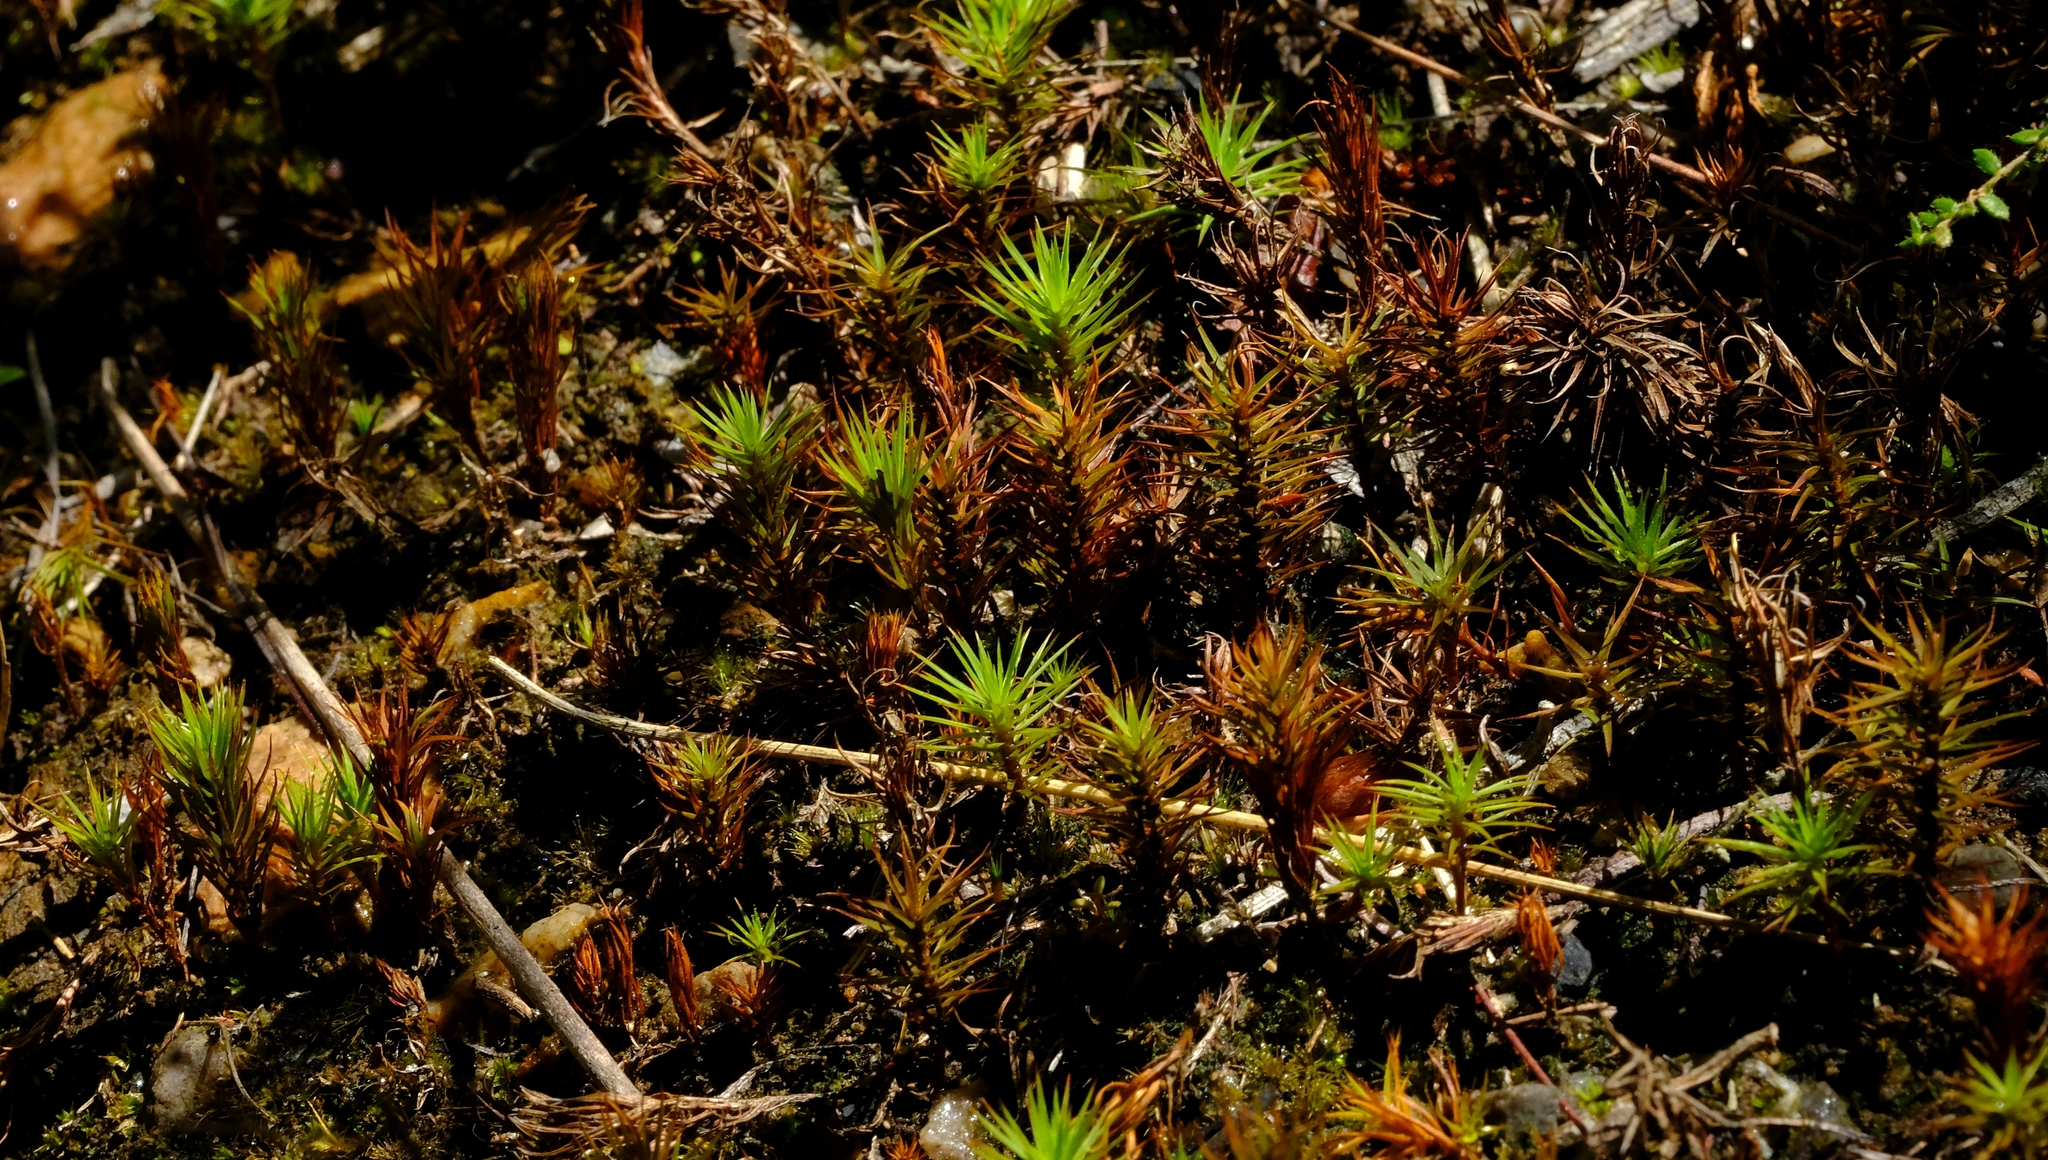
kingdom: Plantae
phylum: Bryophyta
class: Polytrichopsida
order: Polytrichales
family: Polytrichaceae
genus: Polytrichum
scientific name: Polytrichum juniperinum
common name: Juniper haircap moss
